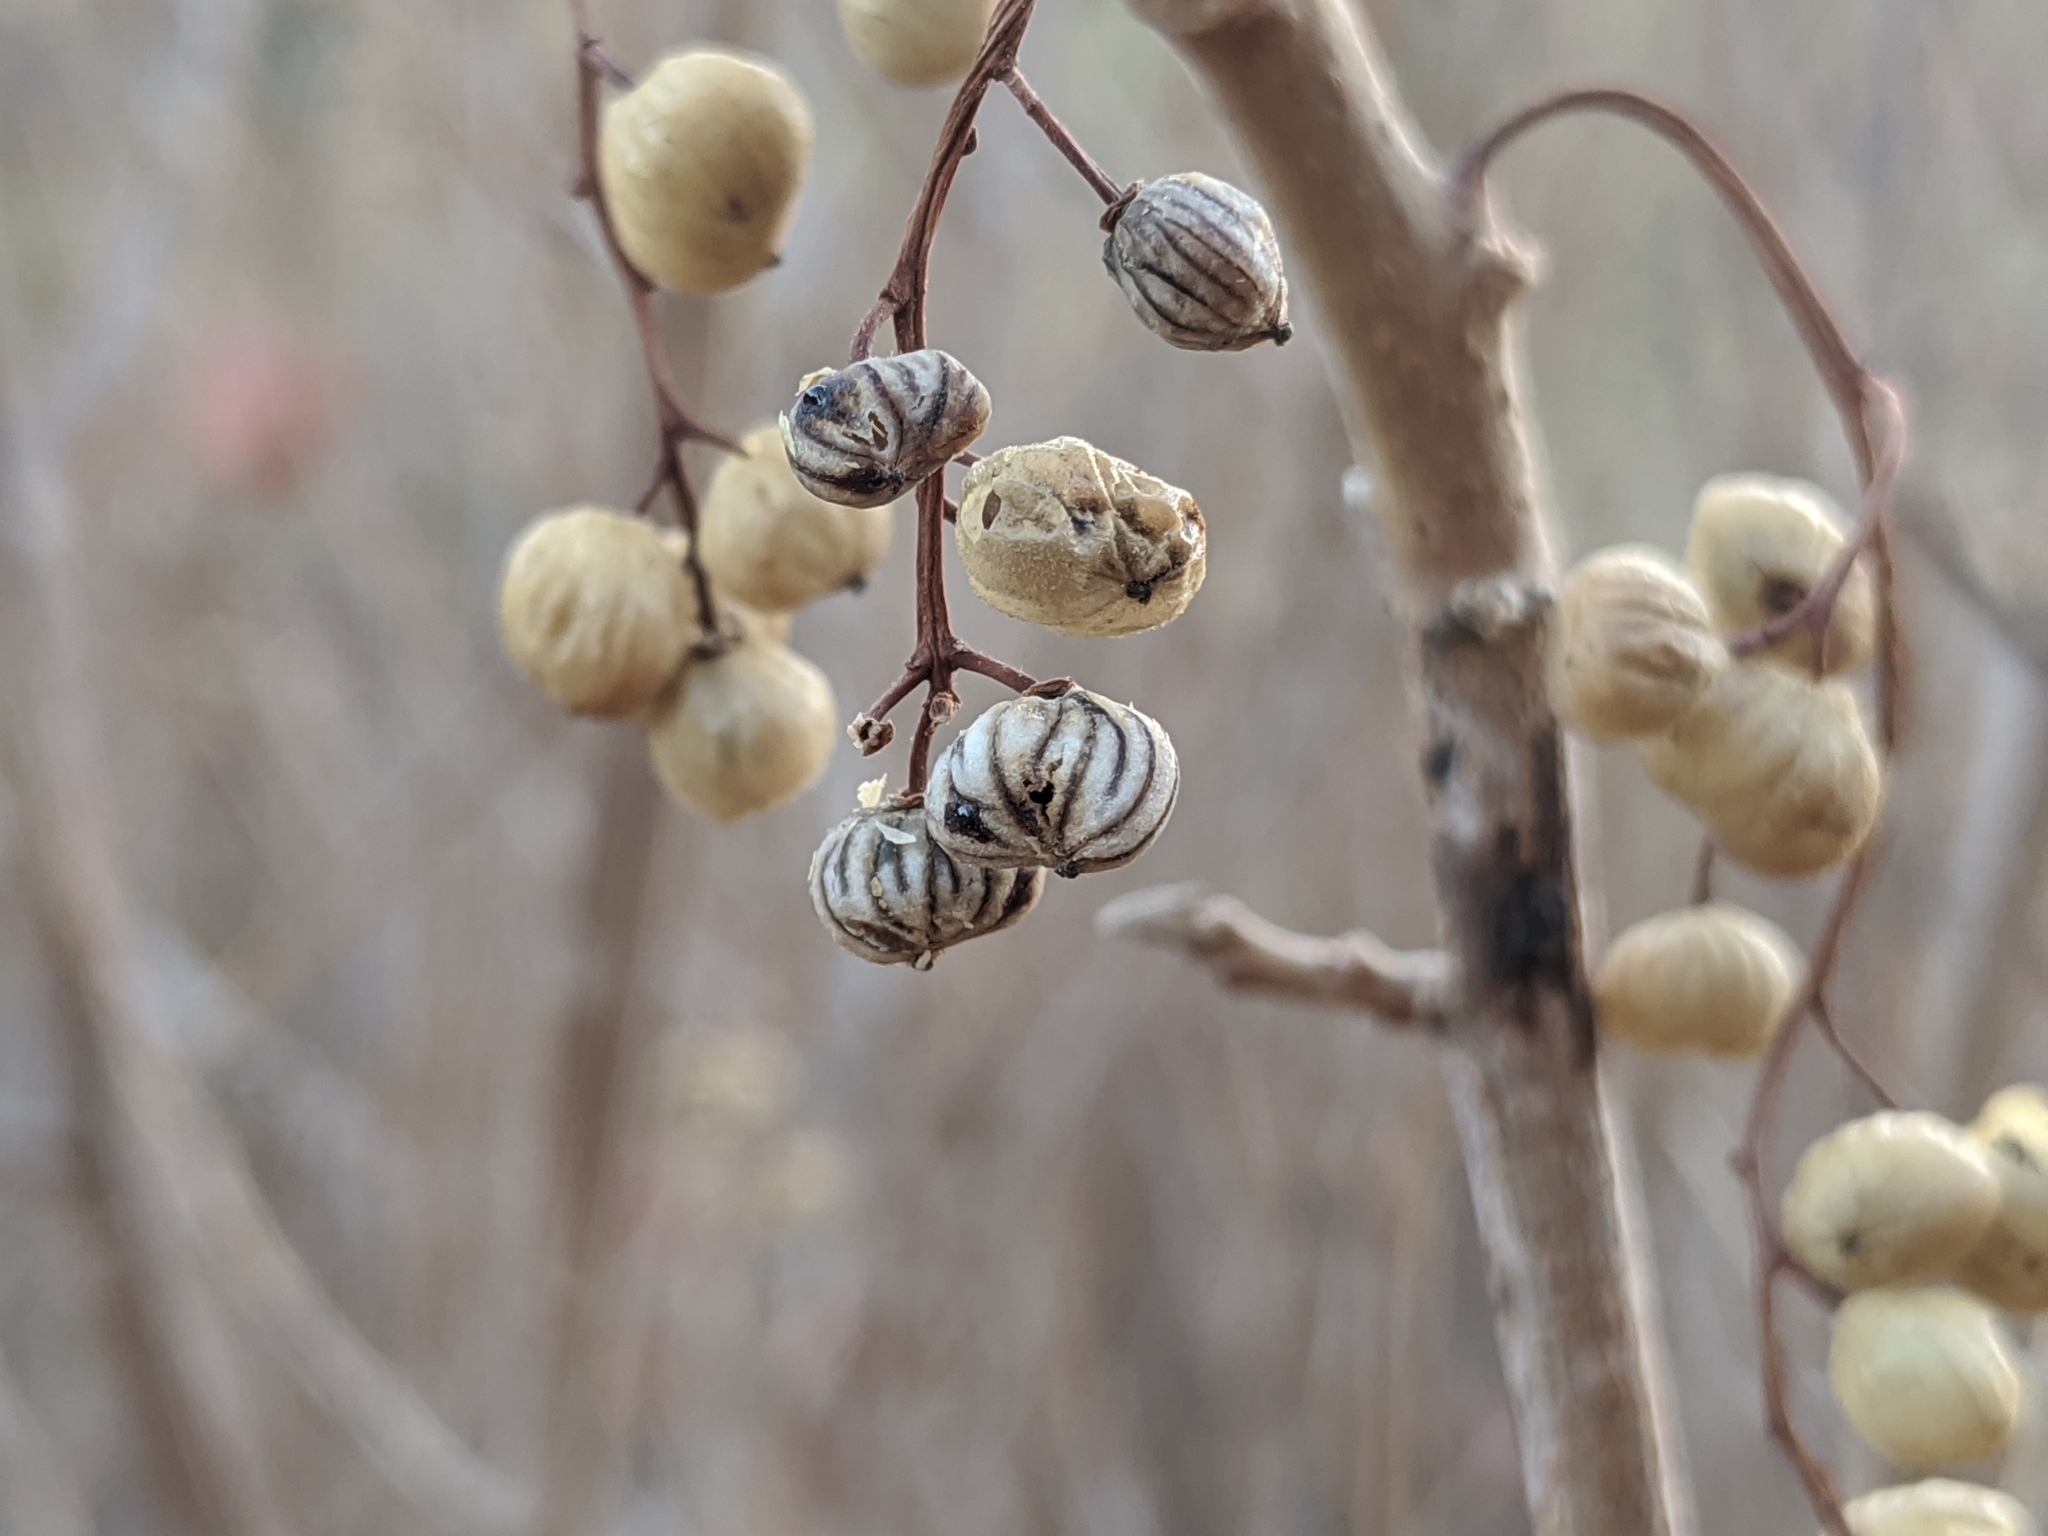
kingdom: Plantae
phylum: Tracheophyta
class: Magnoliopsida
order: Sapindales
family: Anacardiaceae
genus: Toxicodendron
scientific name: Toxicodendron diversilobum
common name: Pacific poison-oak
